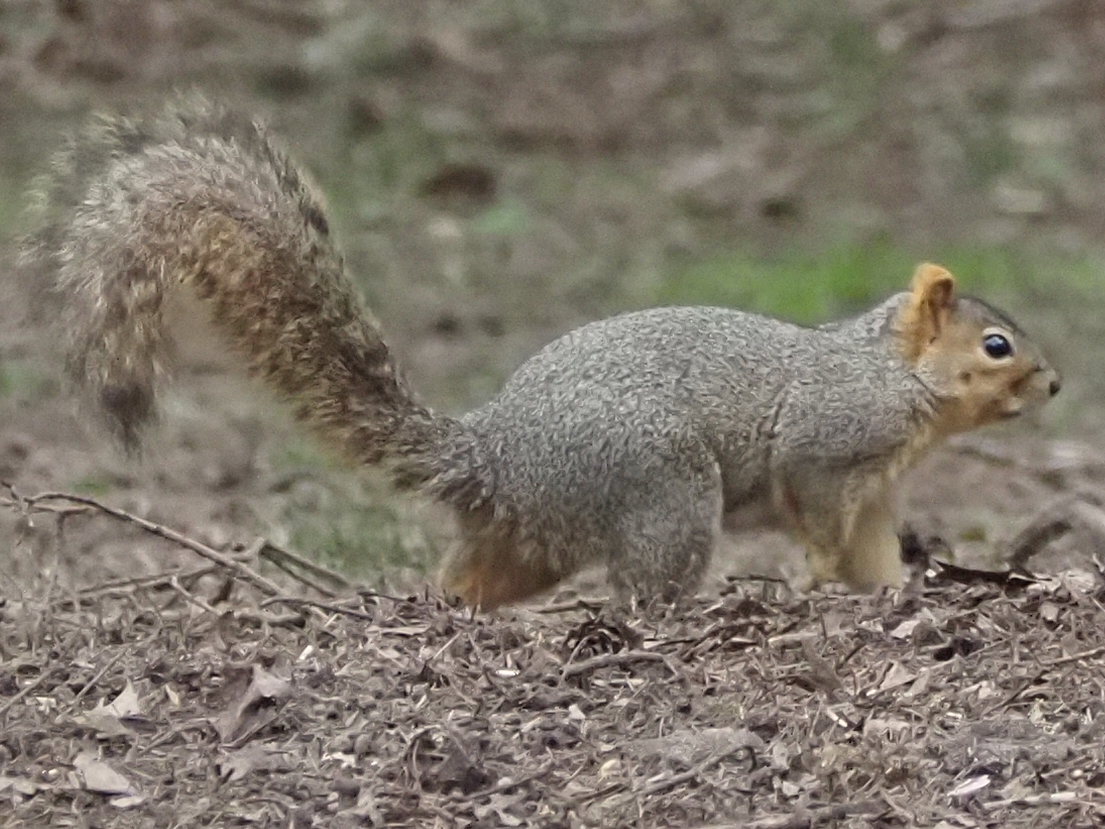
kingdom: Animalia
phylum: Chordata
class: Mammalia
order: Rodentia
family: Sciuridae
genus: Sciurus
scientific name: Sciurus niger
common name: Fox squirrel
